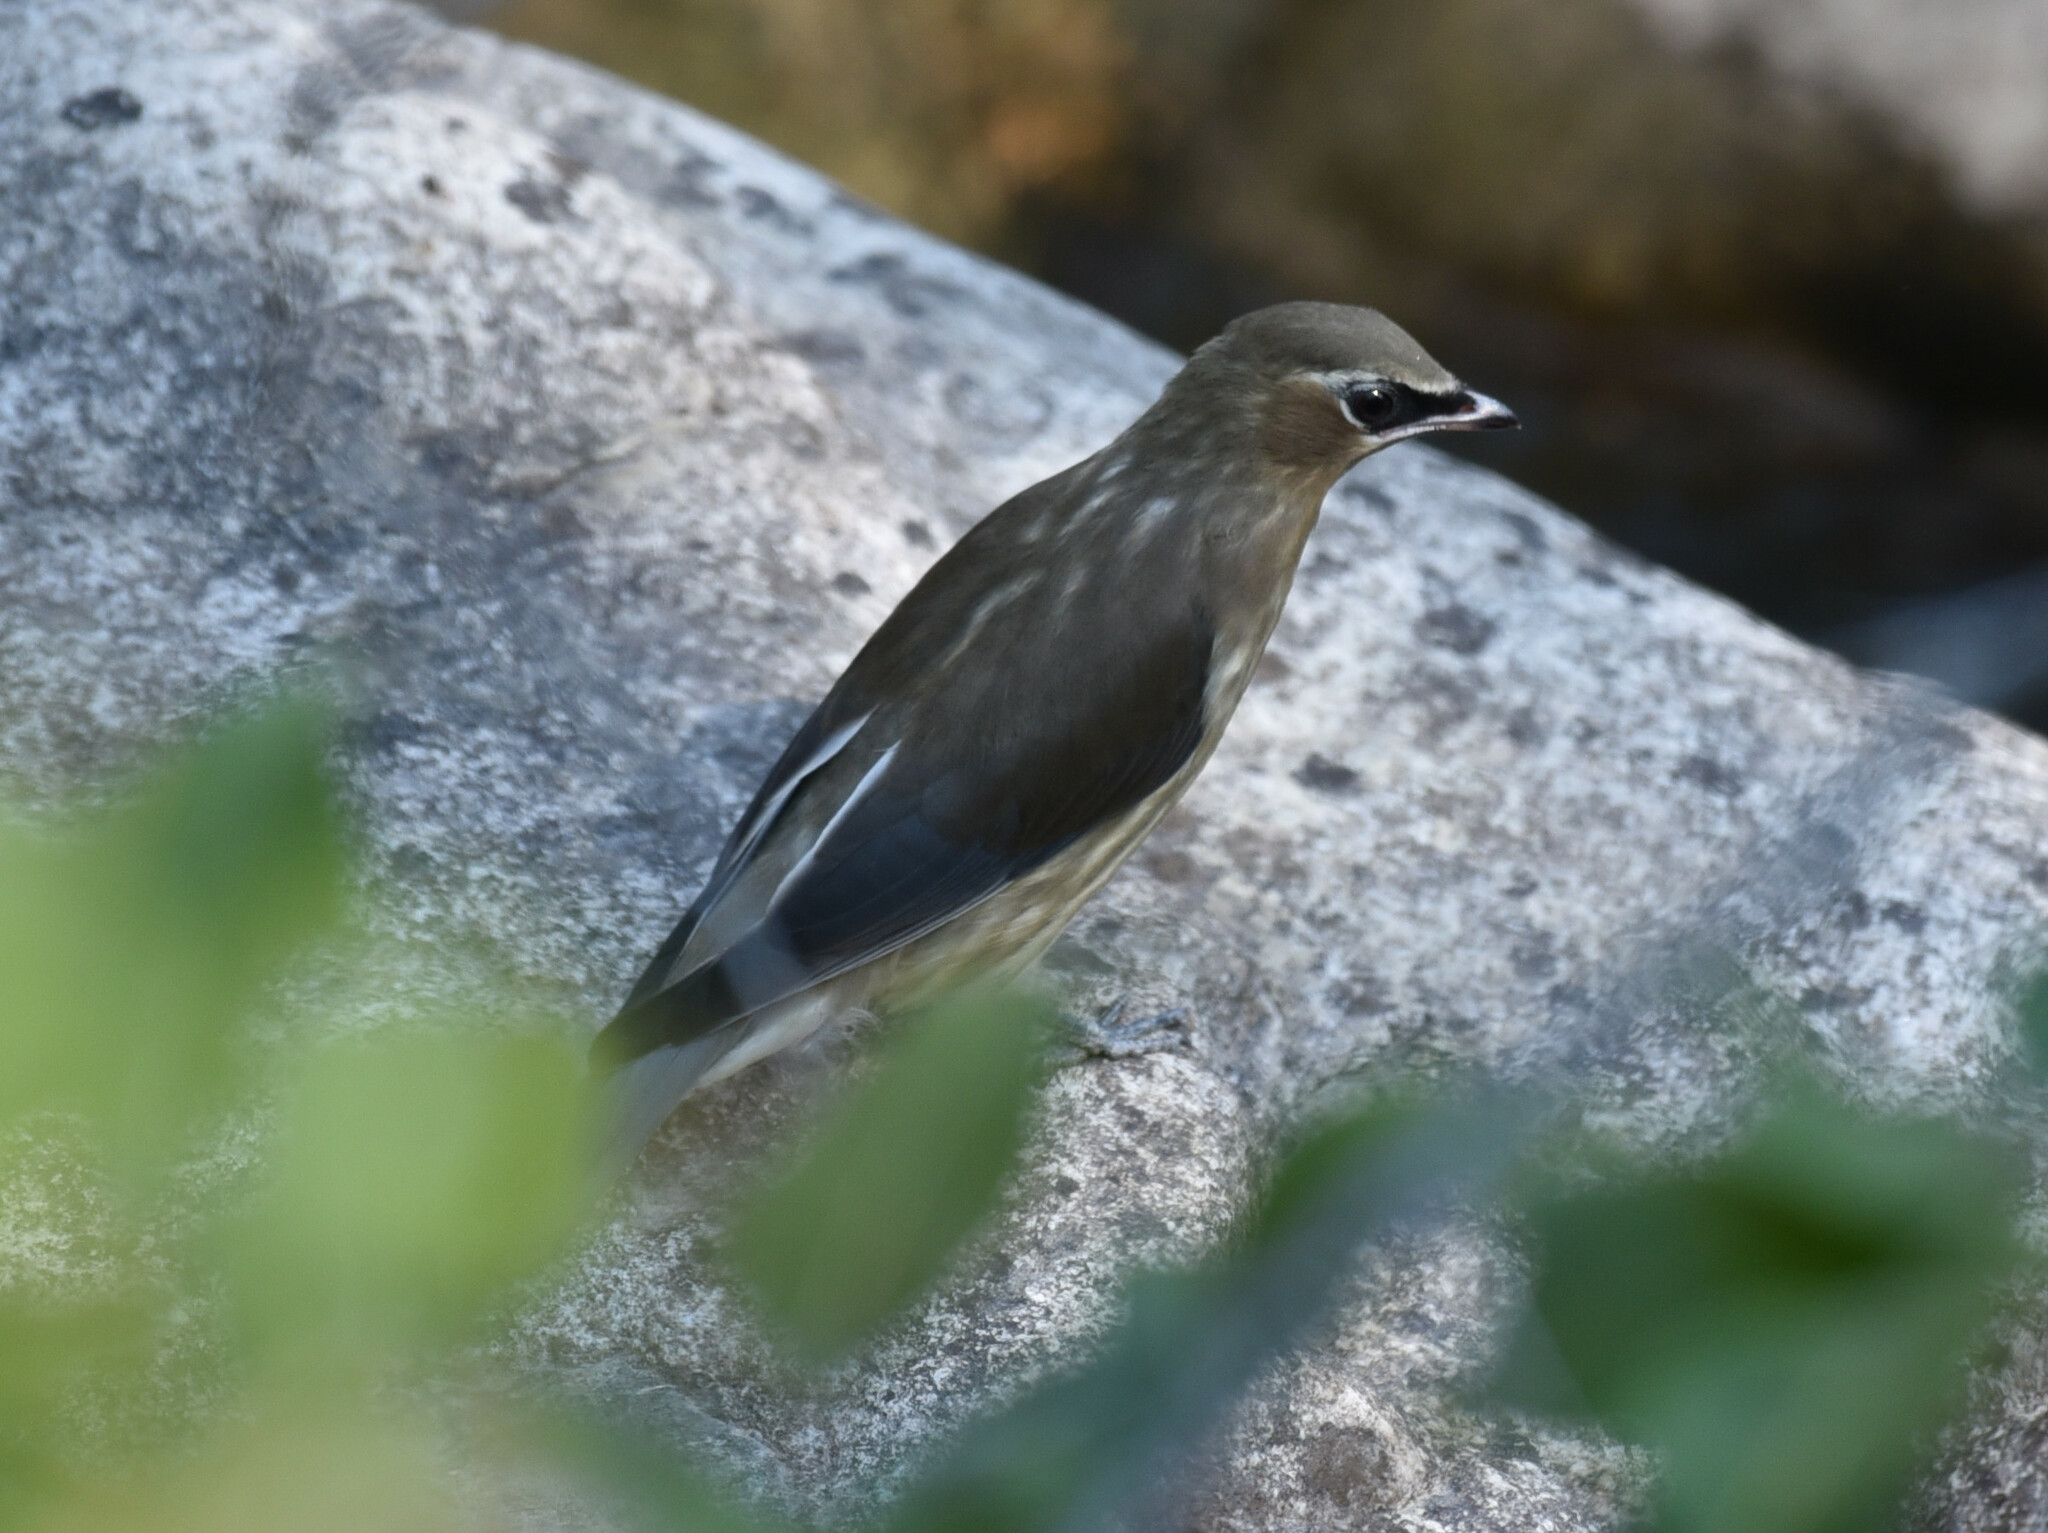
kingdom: Animalia
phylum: Chordata
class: Aves
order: Passeriformes
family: Bombycillidae
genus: Bombycilla
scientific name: Bombycilla cedrorum
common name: Cedar waxwing
